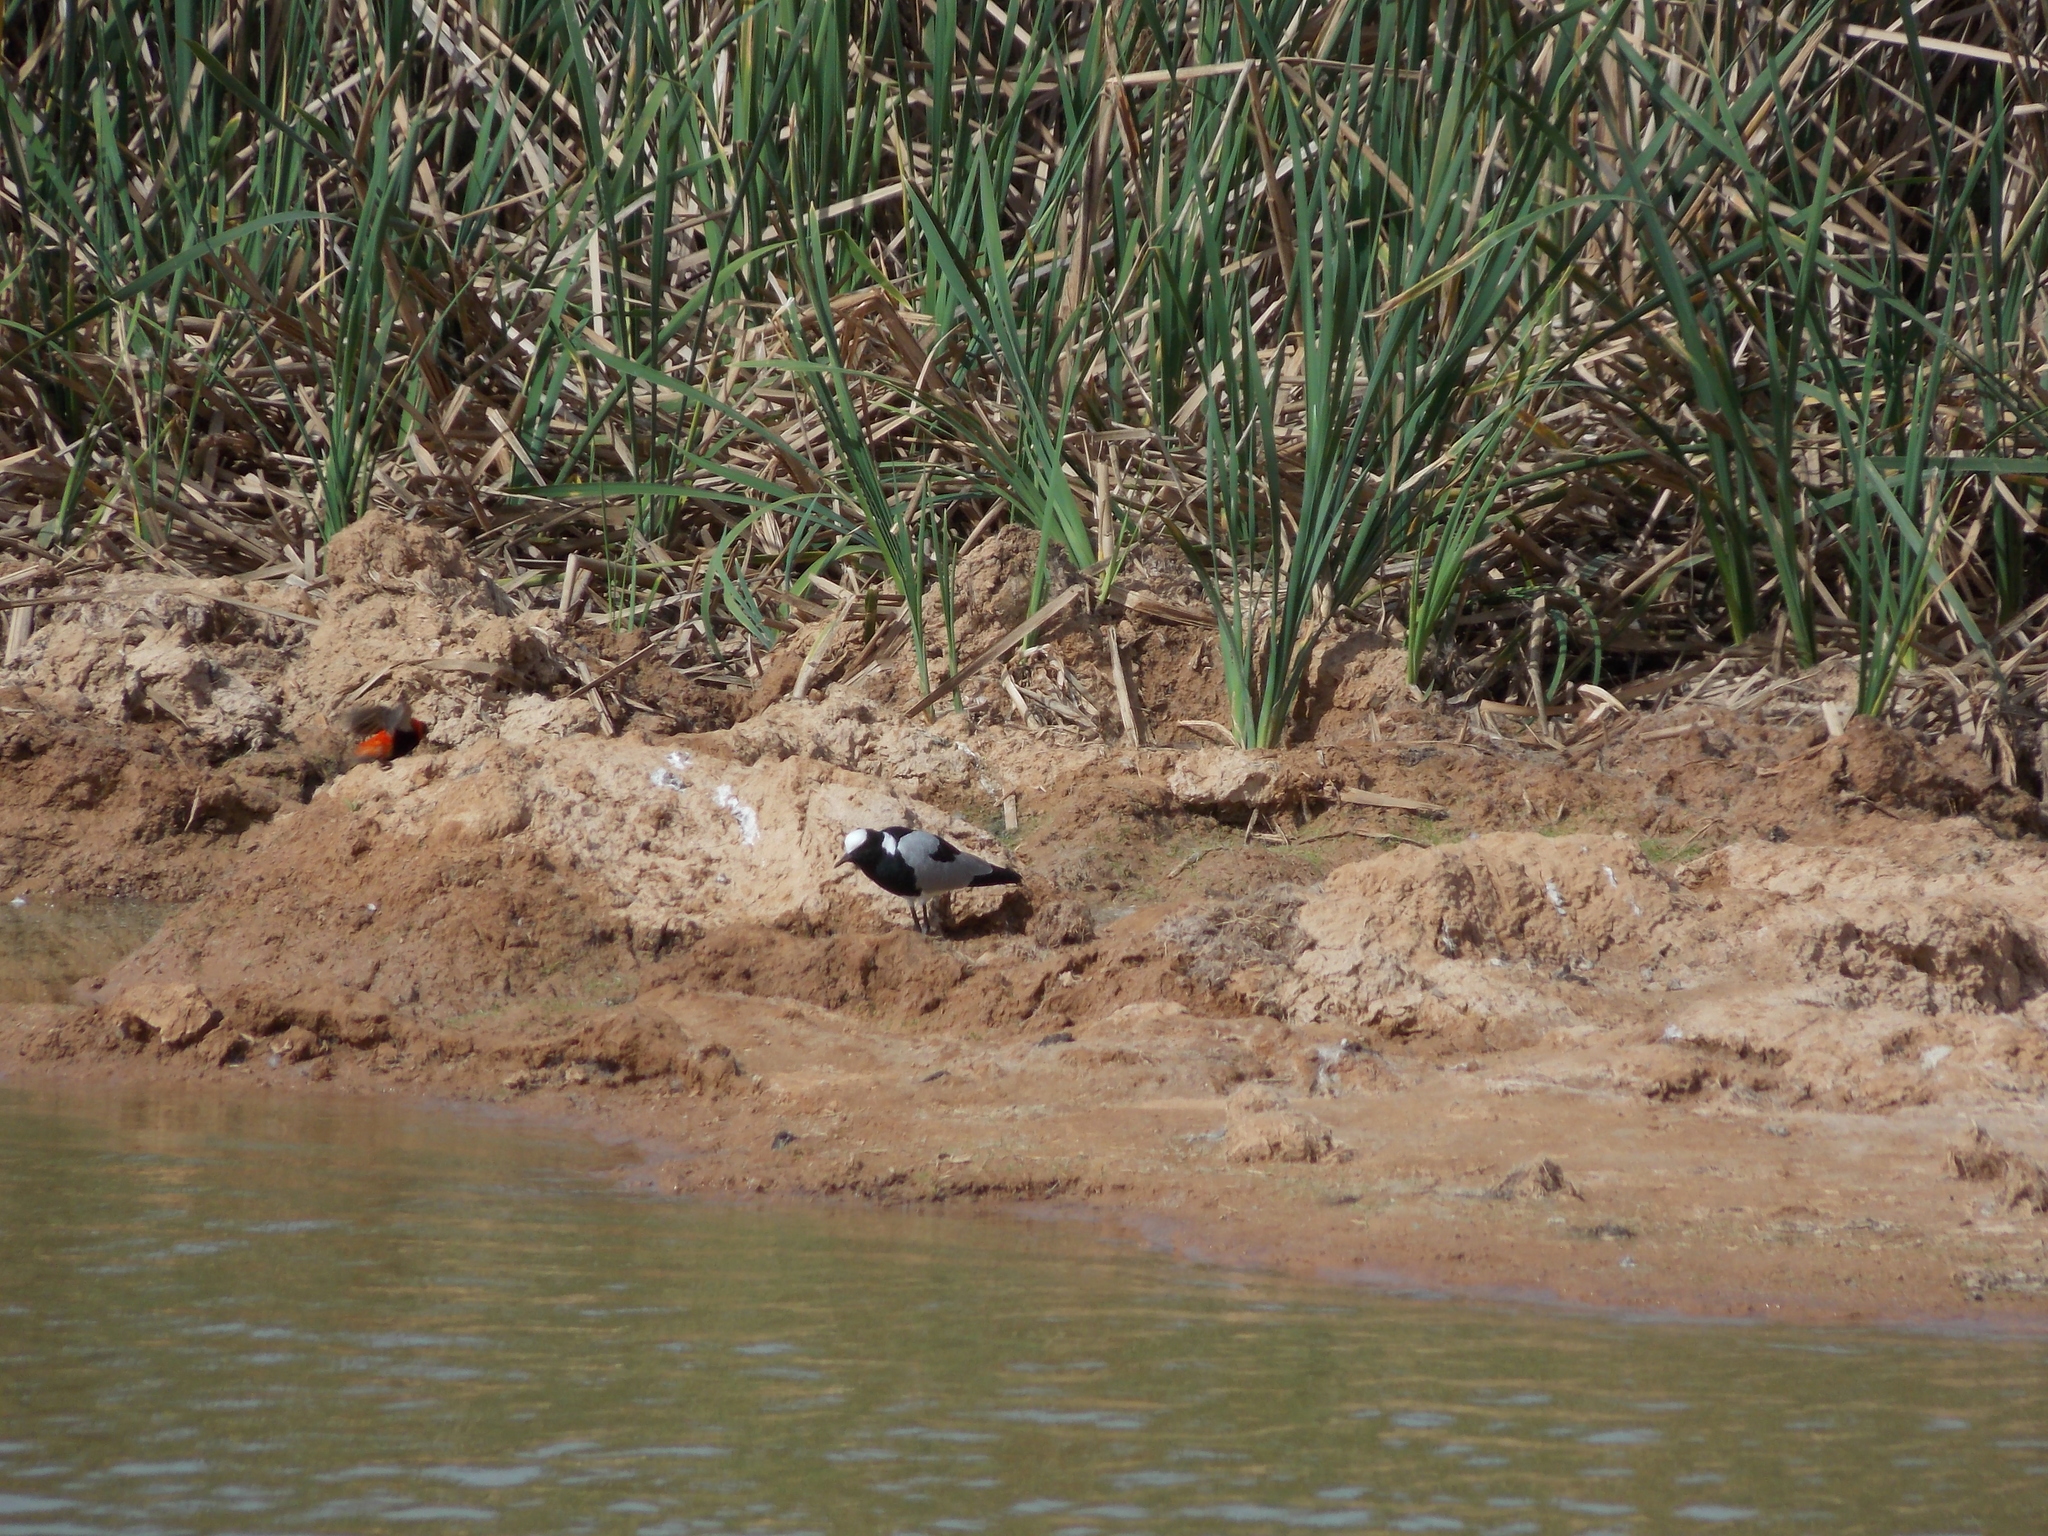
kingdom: Animalia
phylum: Chordata
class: Aves
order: Charadriiformes
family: Charadriidae
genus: Vanellus
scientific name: Vanellus armatus
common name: Blacksmith lapwing
